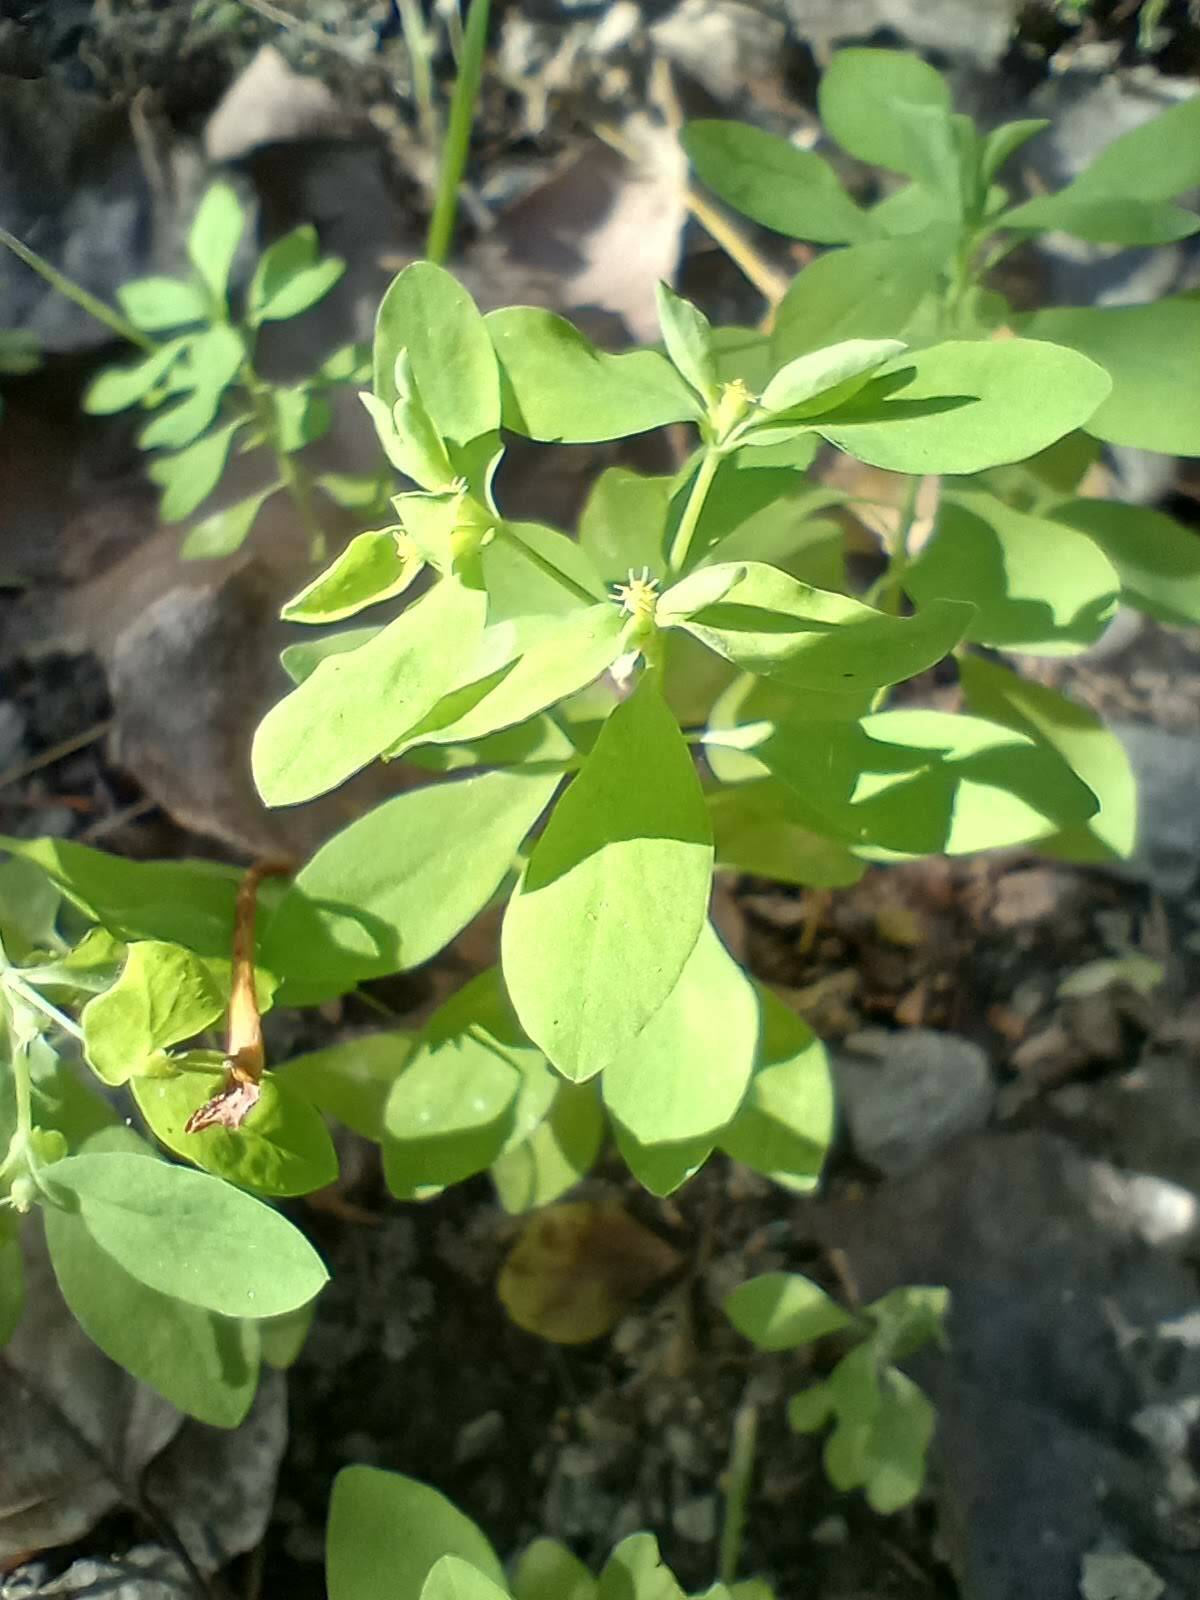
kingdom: Plantae
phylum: Tracheophyta
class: Magnoliopsida
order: Malpighiales
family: Euphorbiaceae
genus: Euphorbia
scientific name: Euphorbia peplus
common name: Petty spurge
